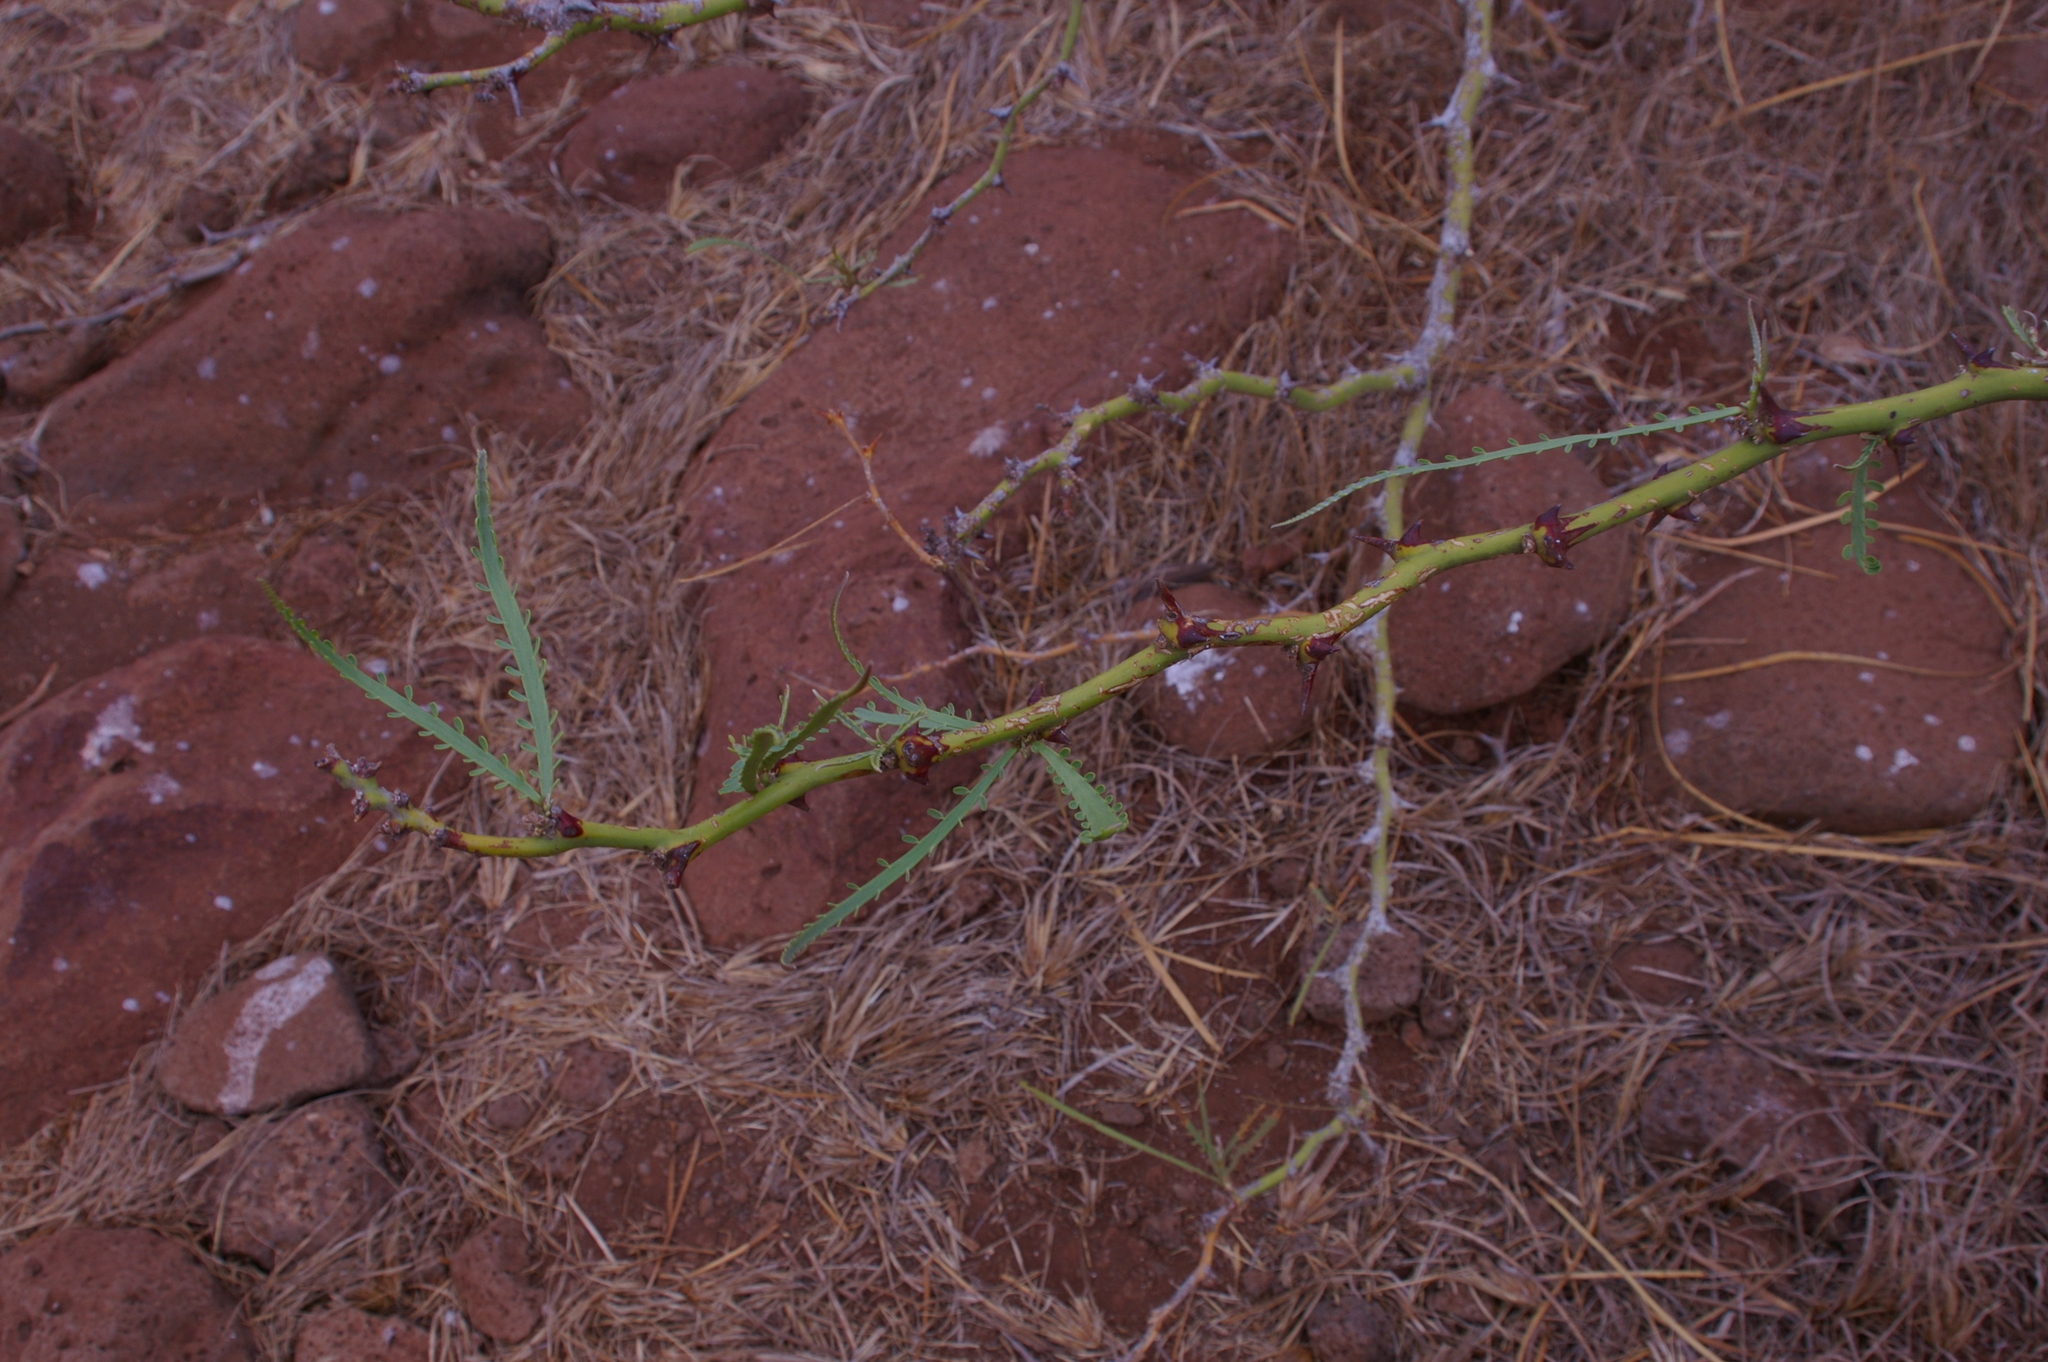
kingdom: Plantae
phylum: Tracheophyta
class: Magnoliopsida
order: Fabales
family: Fabaceae
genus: Parkinsonia
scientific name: Parkinsonia aculeata
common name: Jerusalem thorn
